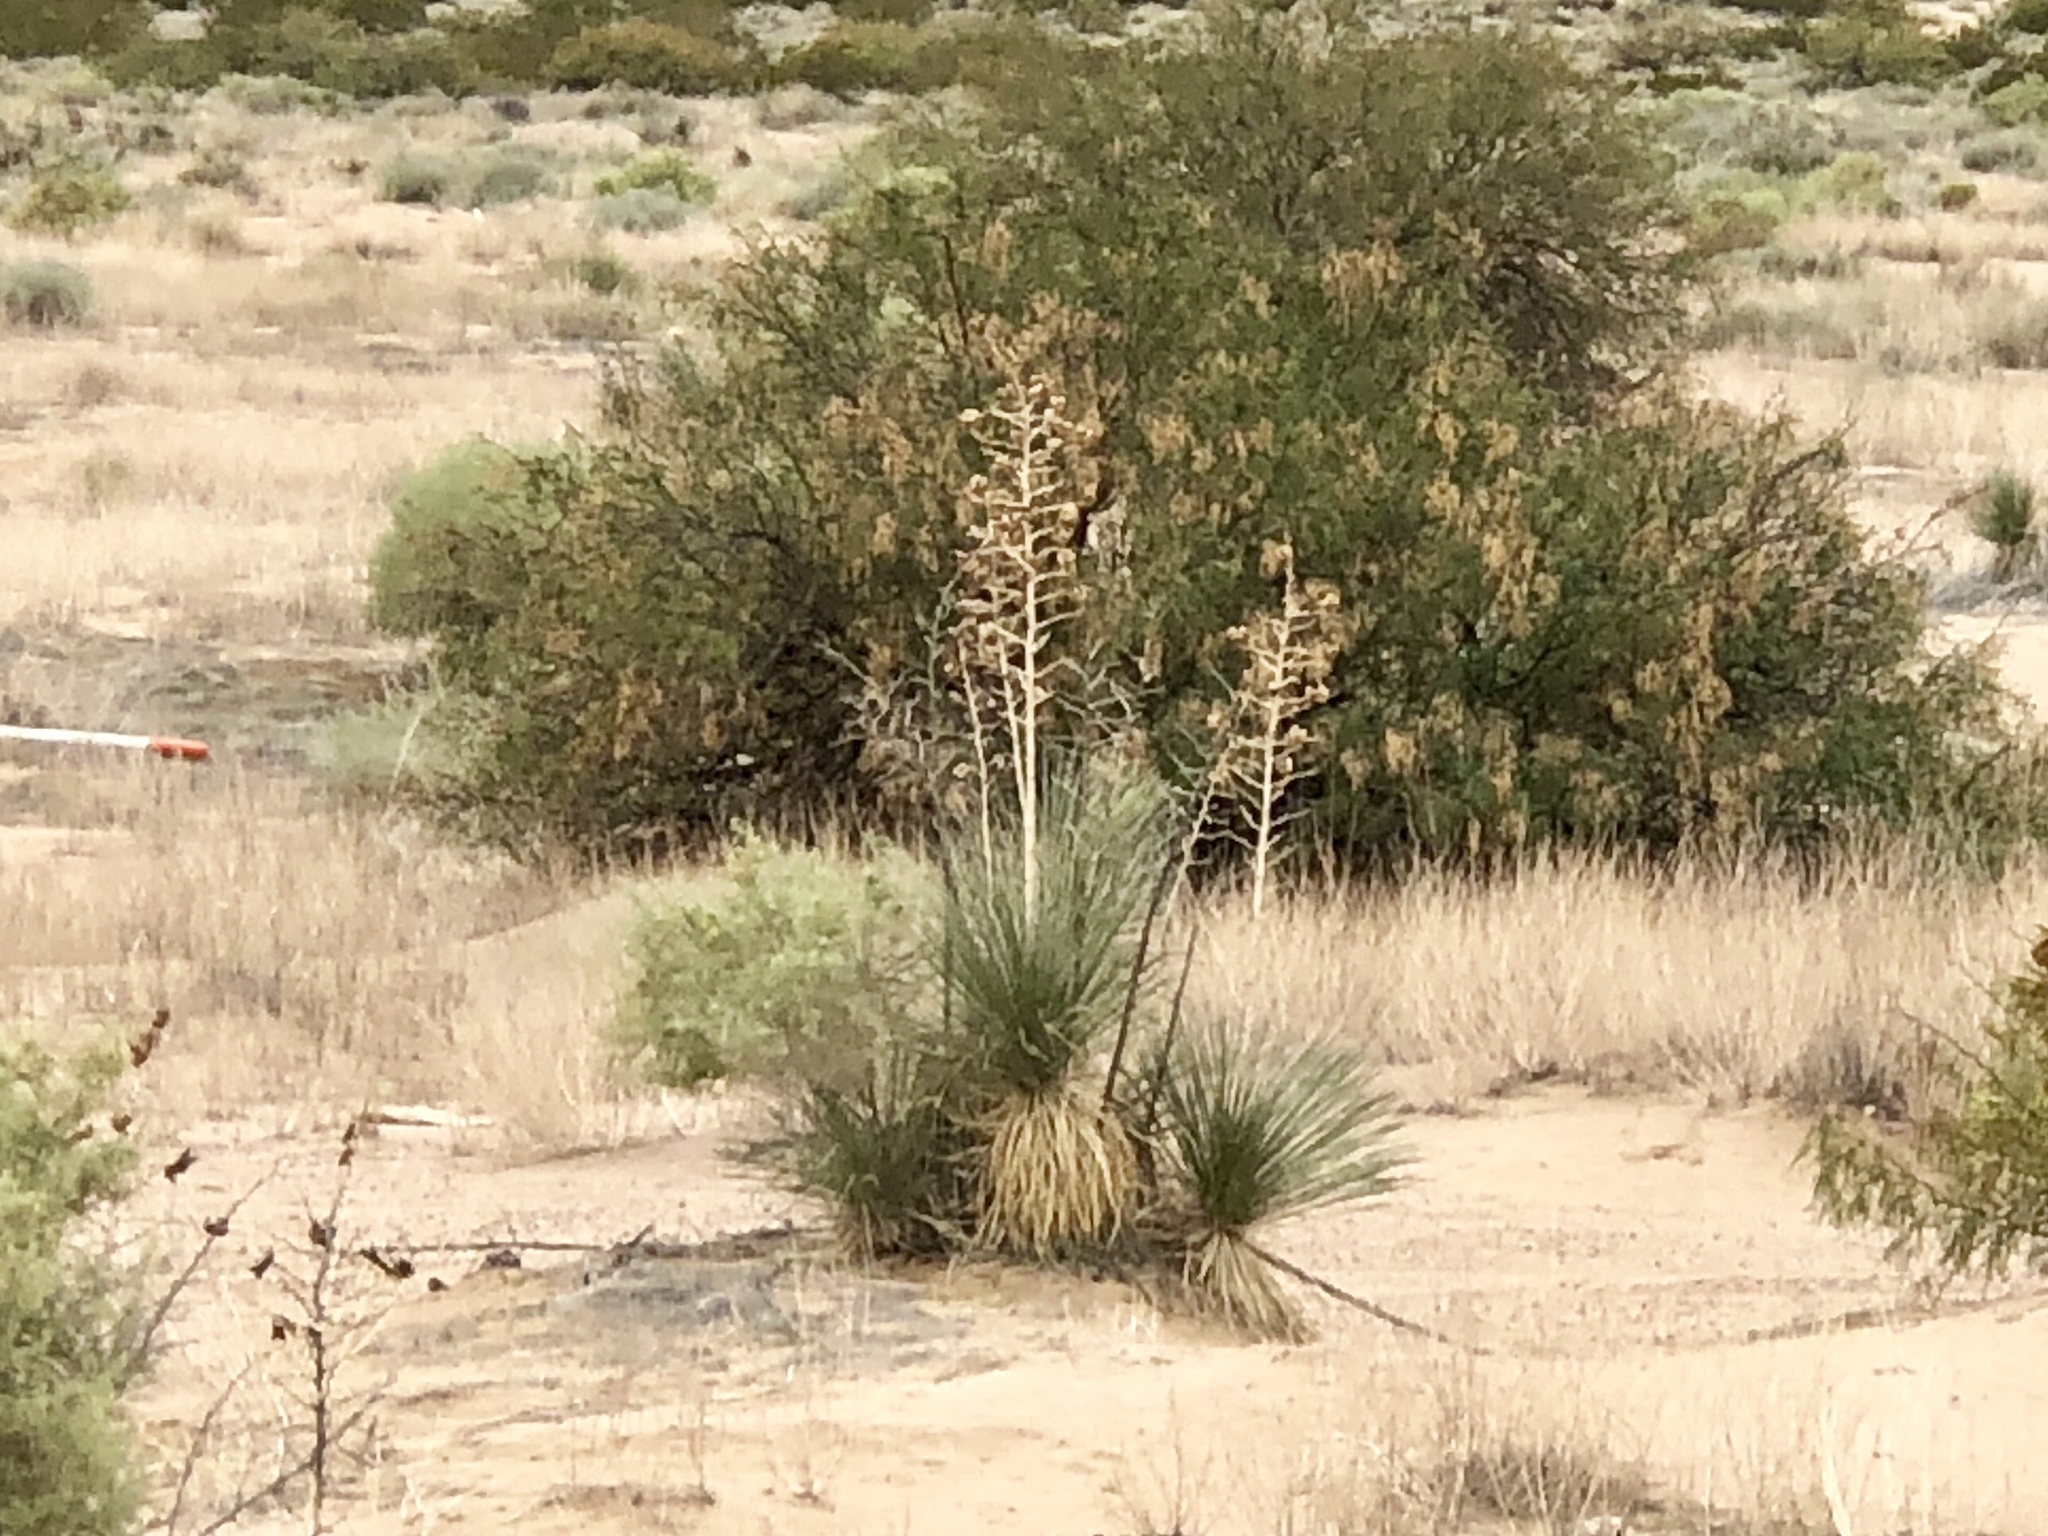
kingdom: Plantae
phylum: Tracheophyta
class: Liliopsida
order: Asparagales
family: Asparagaceae
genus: Yucca
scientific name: Yucca elata
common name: Palmella
